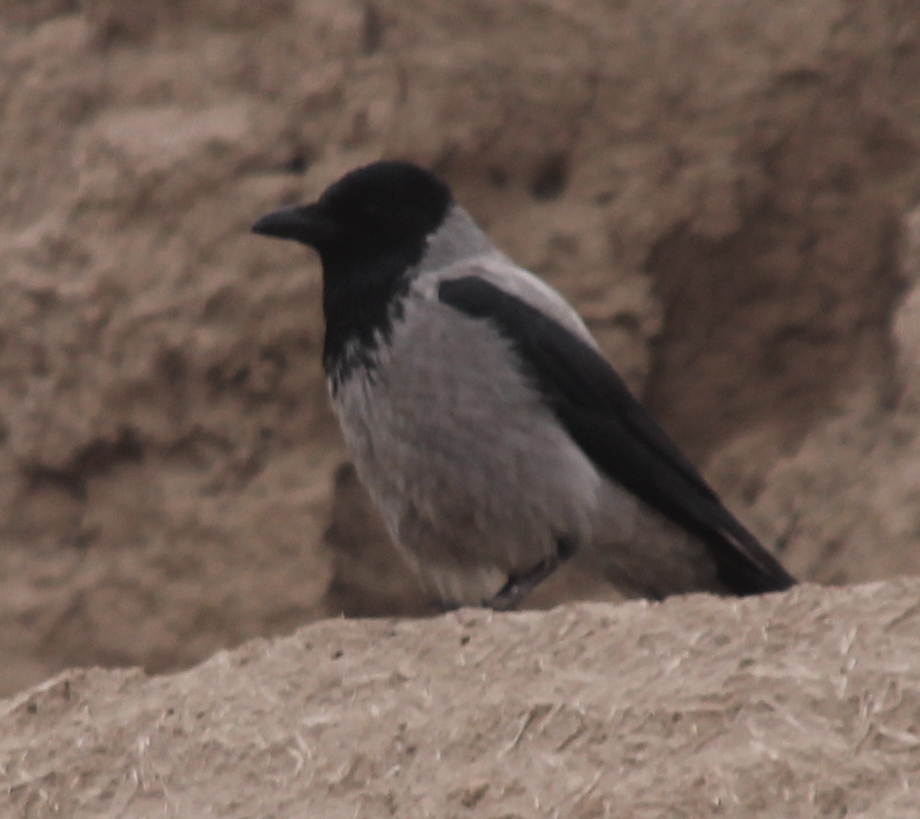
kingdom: Animalia
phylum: Chordata
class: Aves
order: Passeriformes
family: Corvidae
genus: Corvus
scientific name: Corvus cornix
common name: Hooded crow
